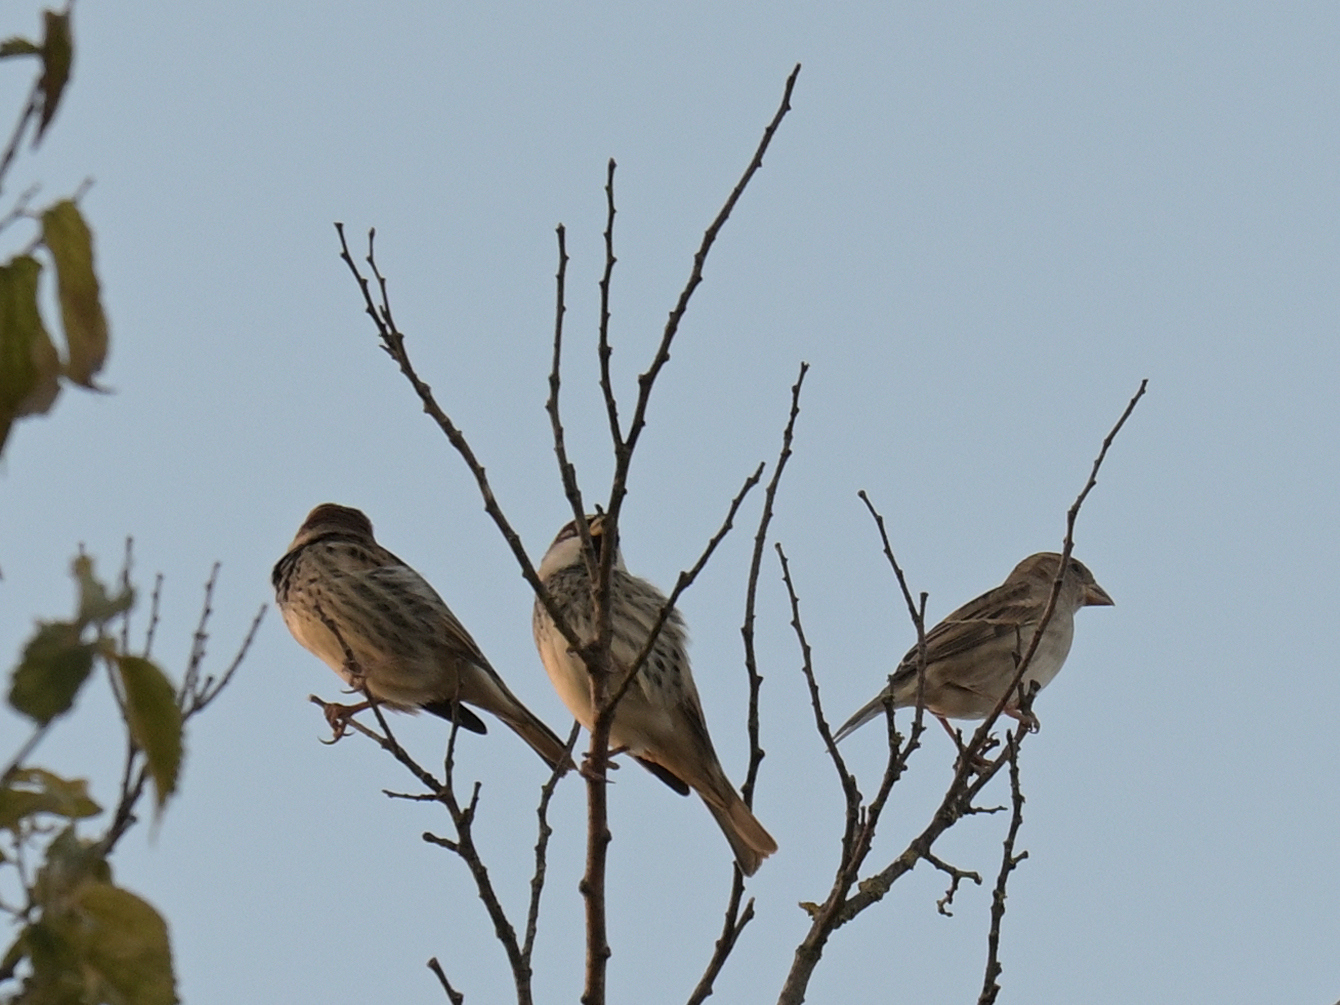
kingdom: Animalia
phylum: Chordata
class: Aves
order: Passeriformes
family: Passeridae
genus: Passer
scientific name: Passer hispaniolensis
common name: Spanish sparrow
